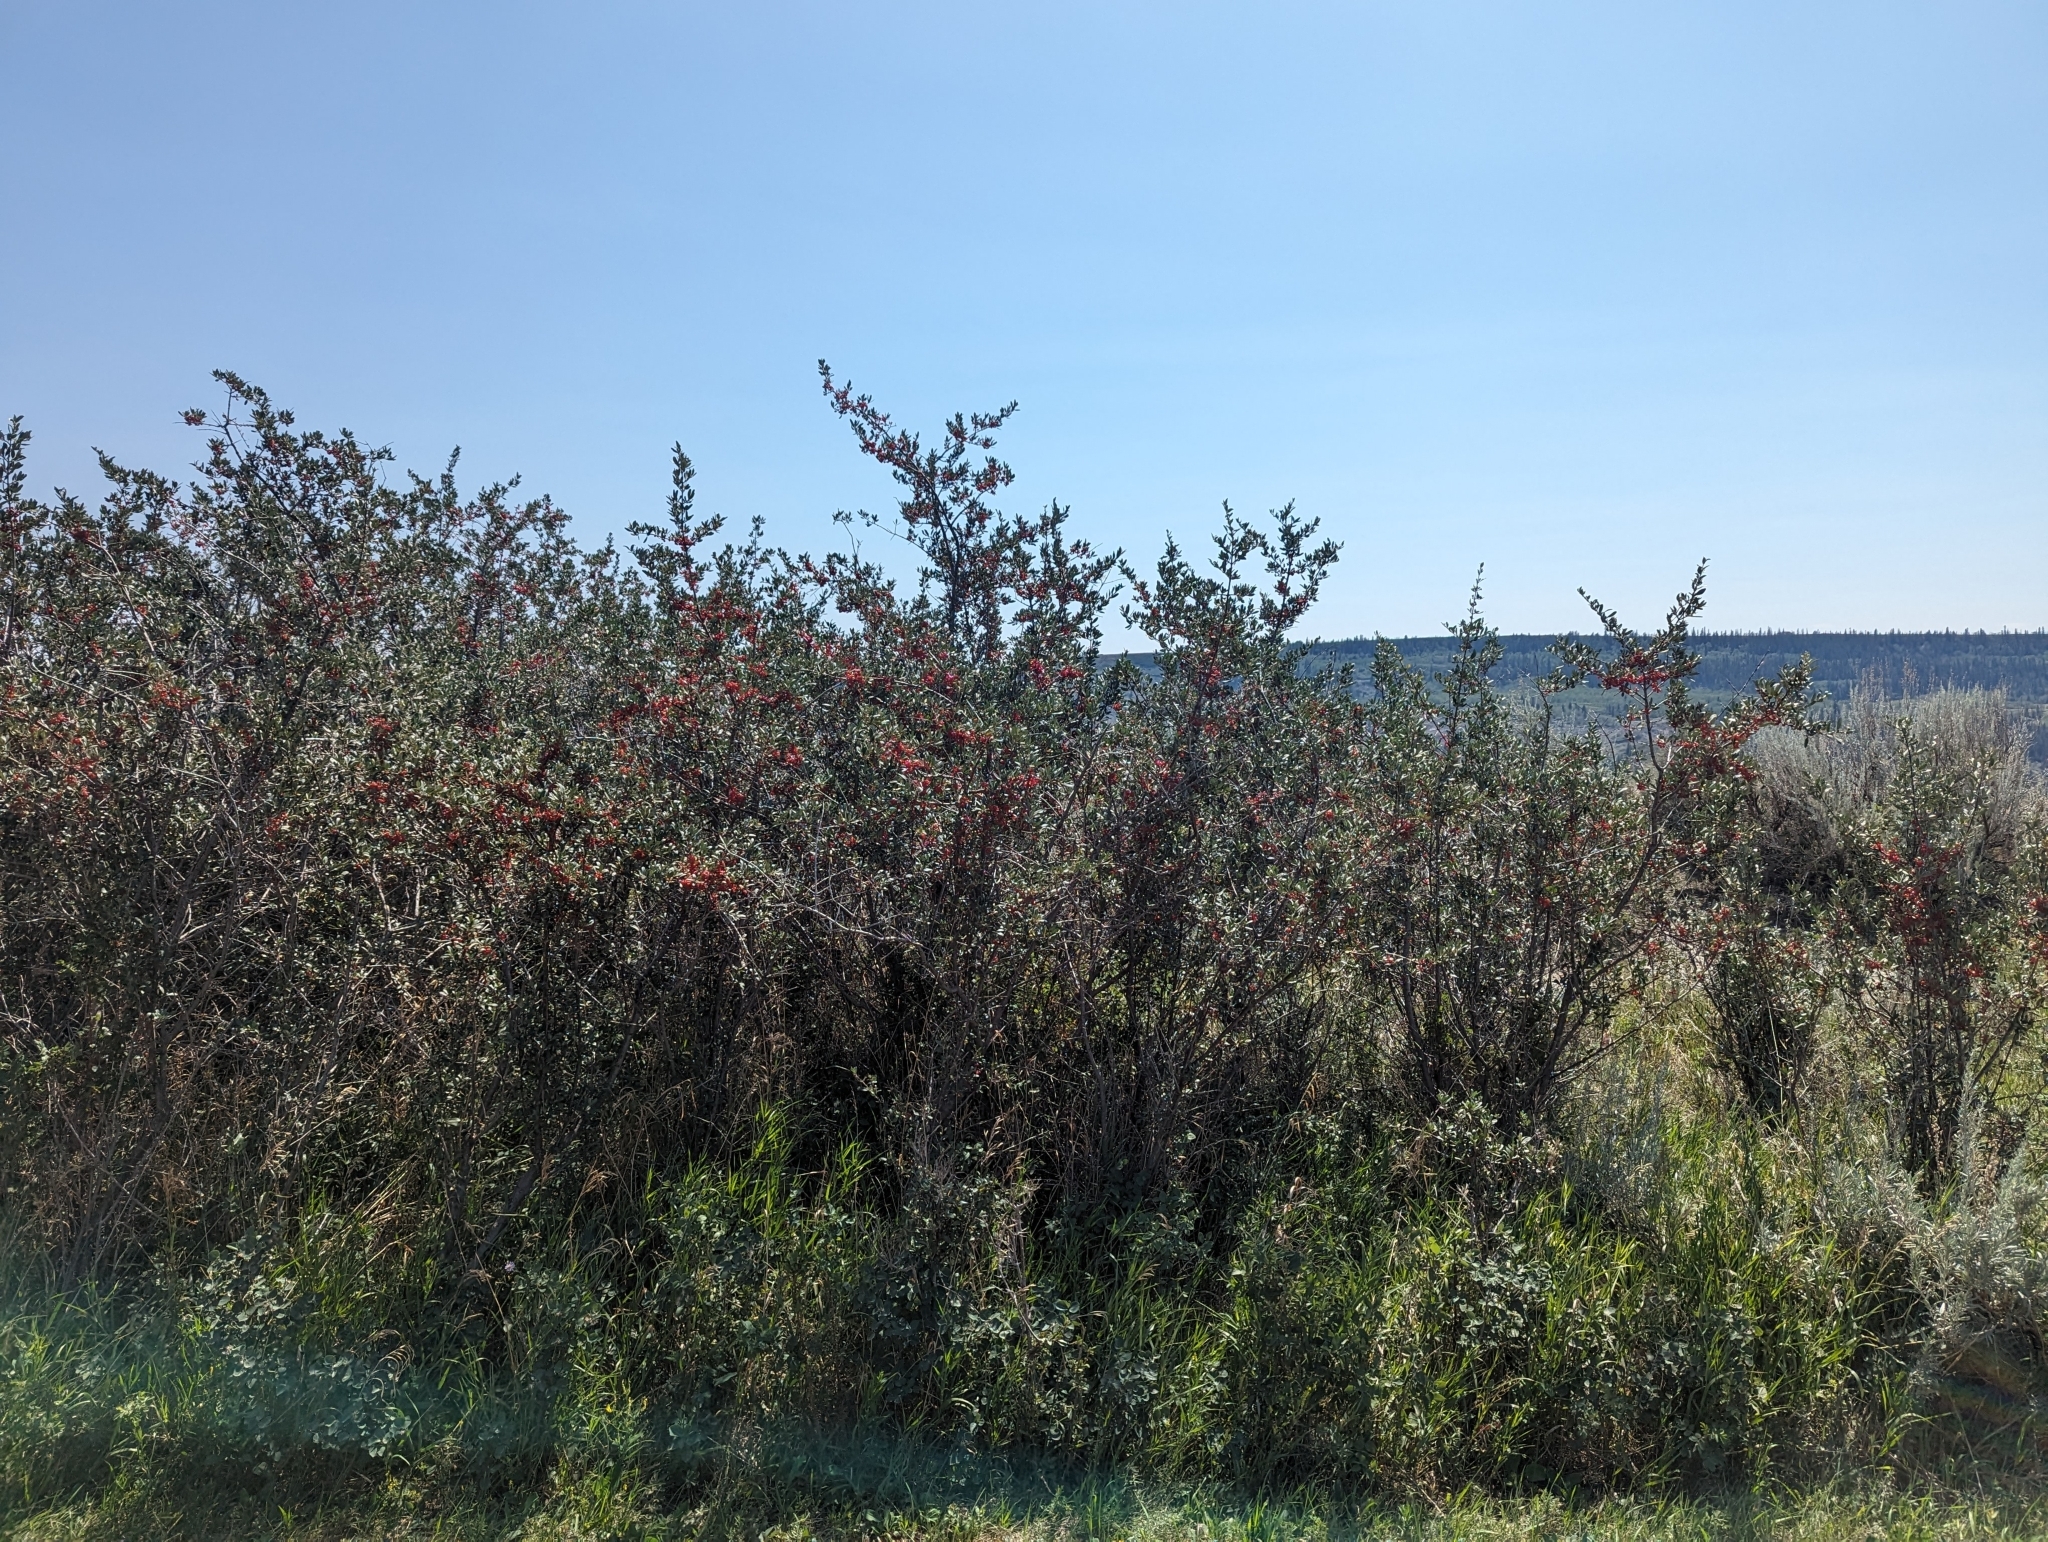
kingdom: Plantae
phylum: Tracheophyta
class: Magnoliopsida
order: Rosales
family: Elaeagnaceae
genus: Shepherdia
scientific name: Shepherdia argentea
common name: Silver buffaloberry
